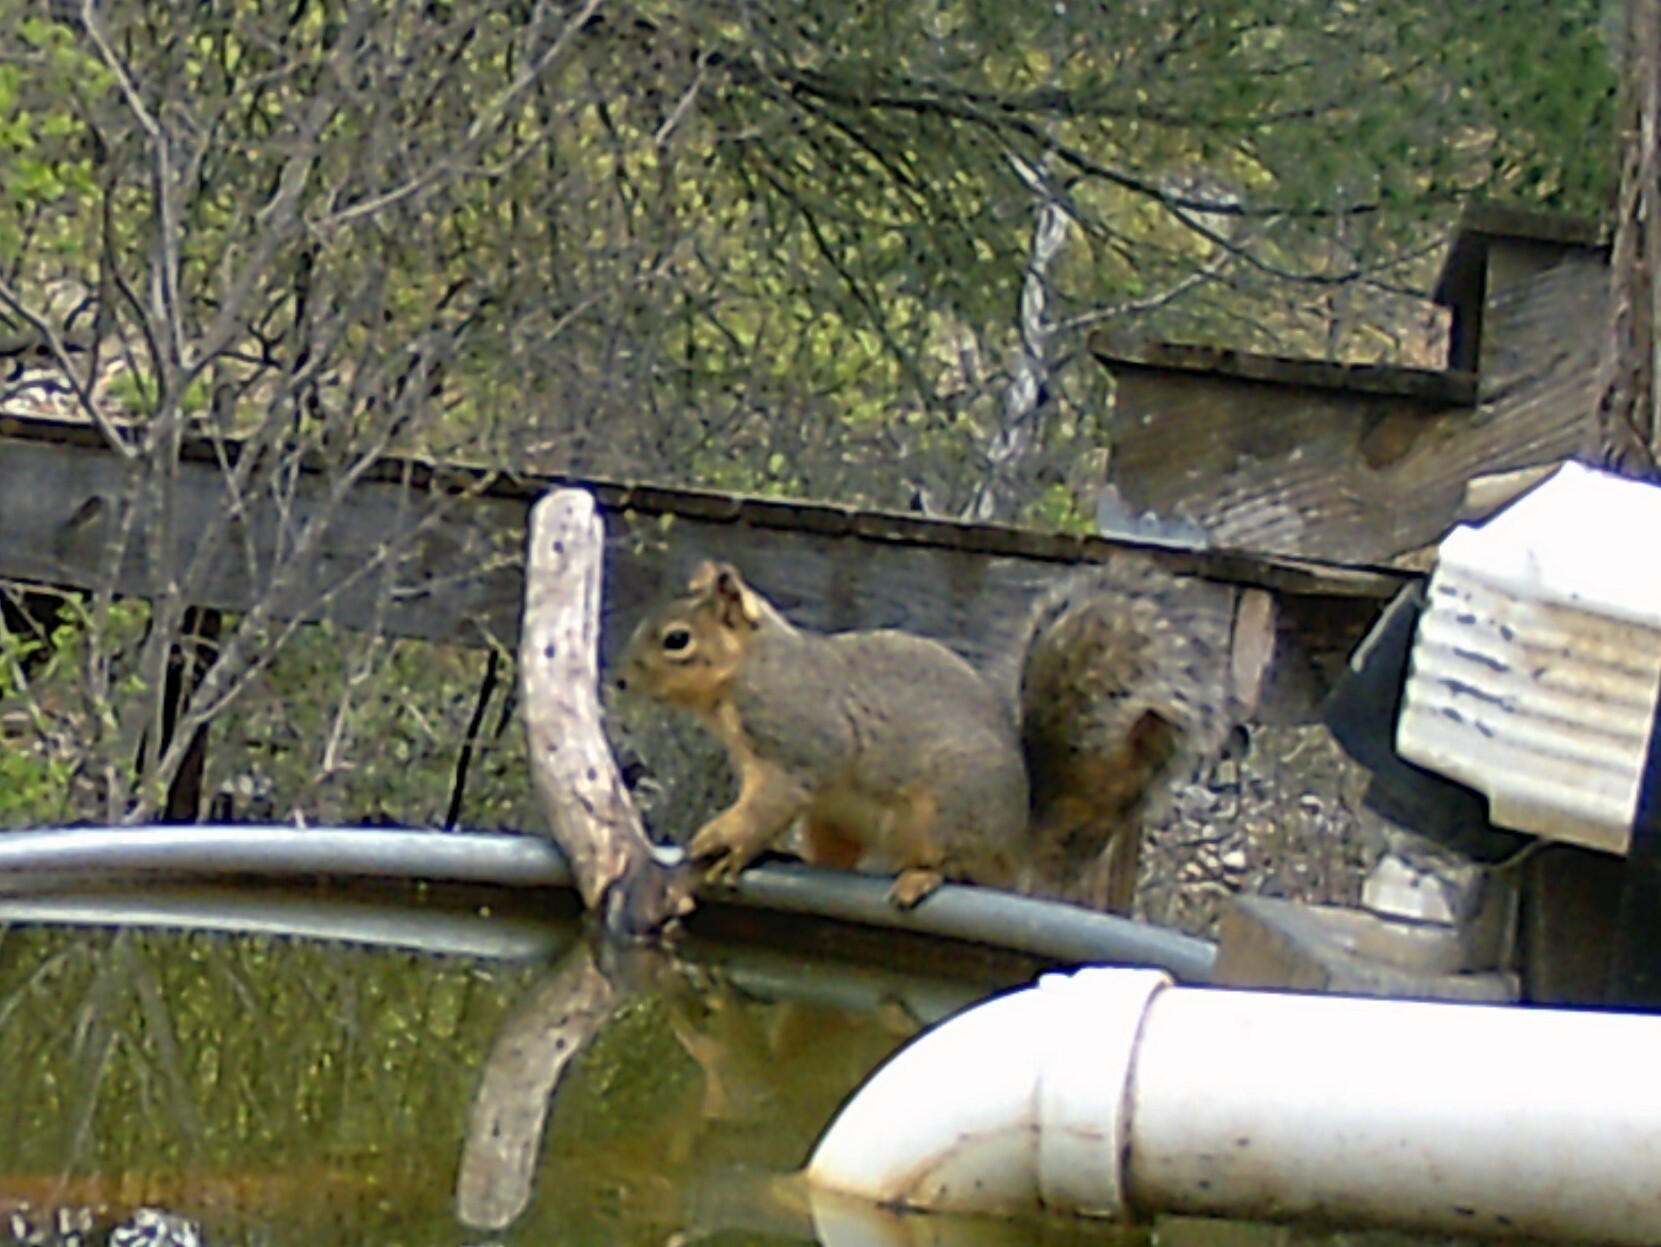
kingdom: Animalia
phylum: Chordata
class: Mammalia
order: Rodentia
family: Sciuridae
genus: Sciurus
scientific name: Sciurus niger
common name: Fox squirrel
